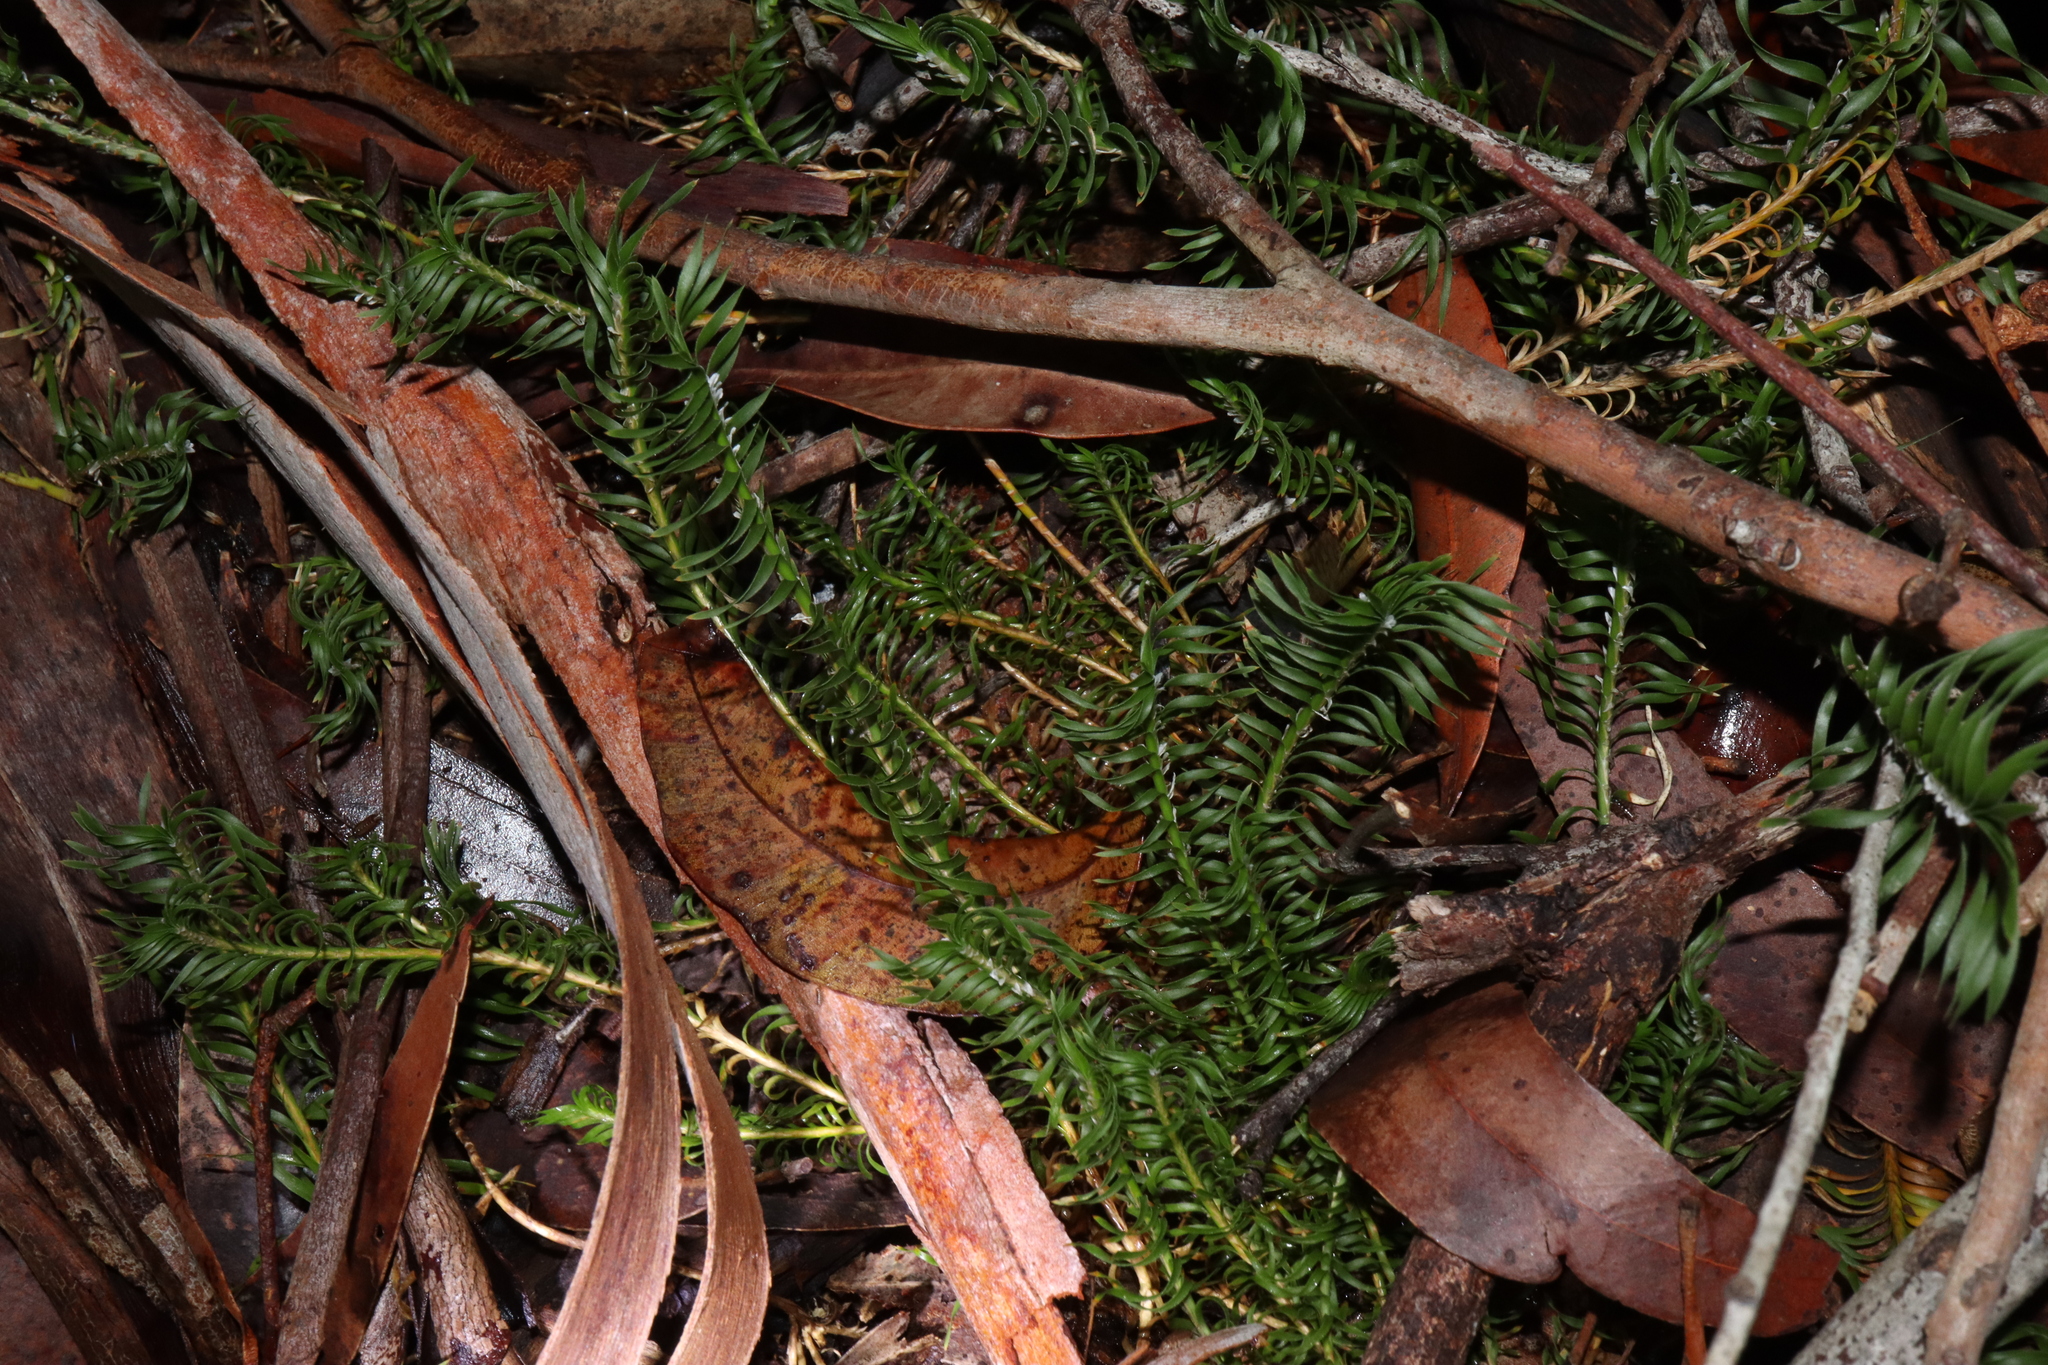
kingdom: Plantae
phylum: Tracheophyta
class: Liliopsida
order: Asparagales
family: Asparagaceae
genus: Lomandra
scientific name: Lomandra obliqua
